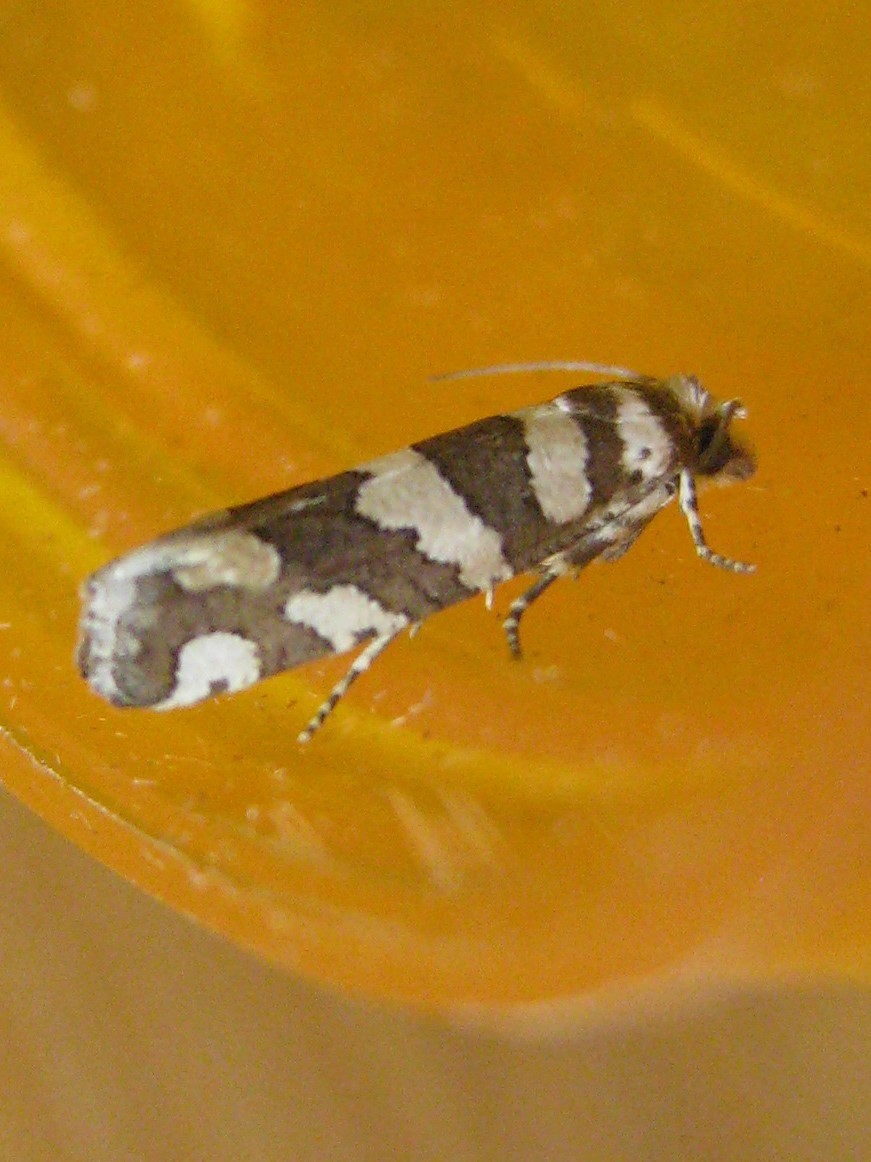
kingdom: Animalia
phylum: Arthropoda
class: Insecta
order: Lepidoptera
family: Tortricidae
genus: Pelochrista
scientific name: Pelochrista robinsonana
